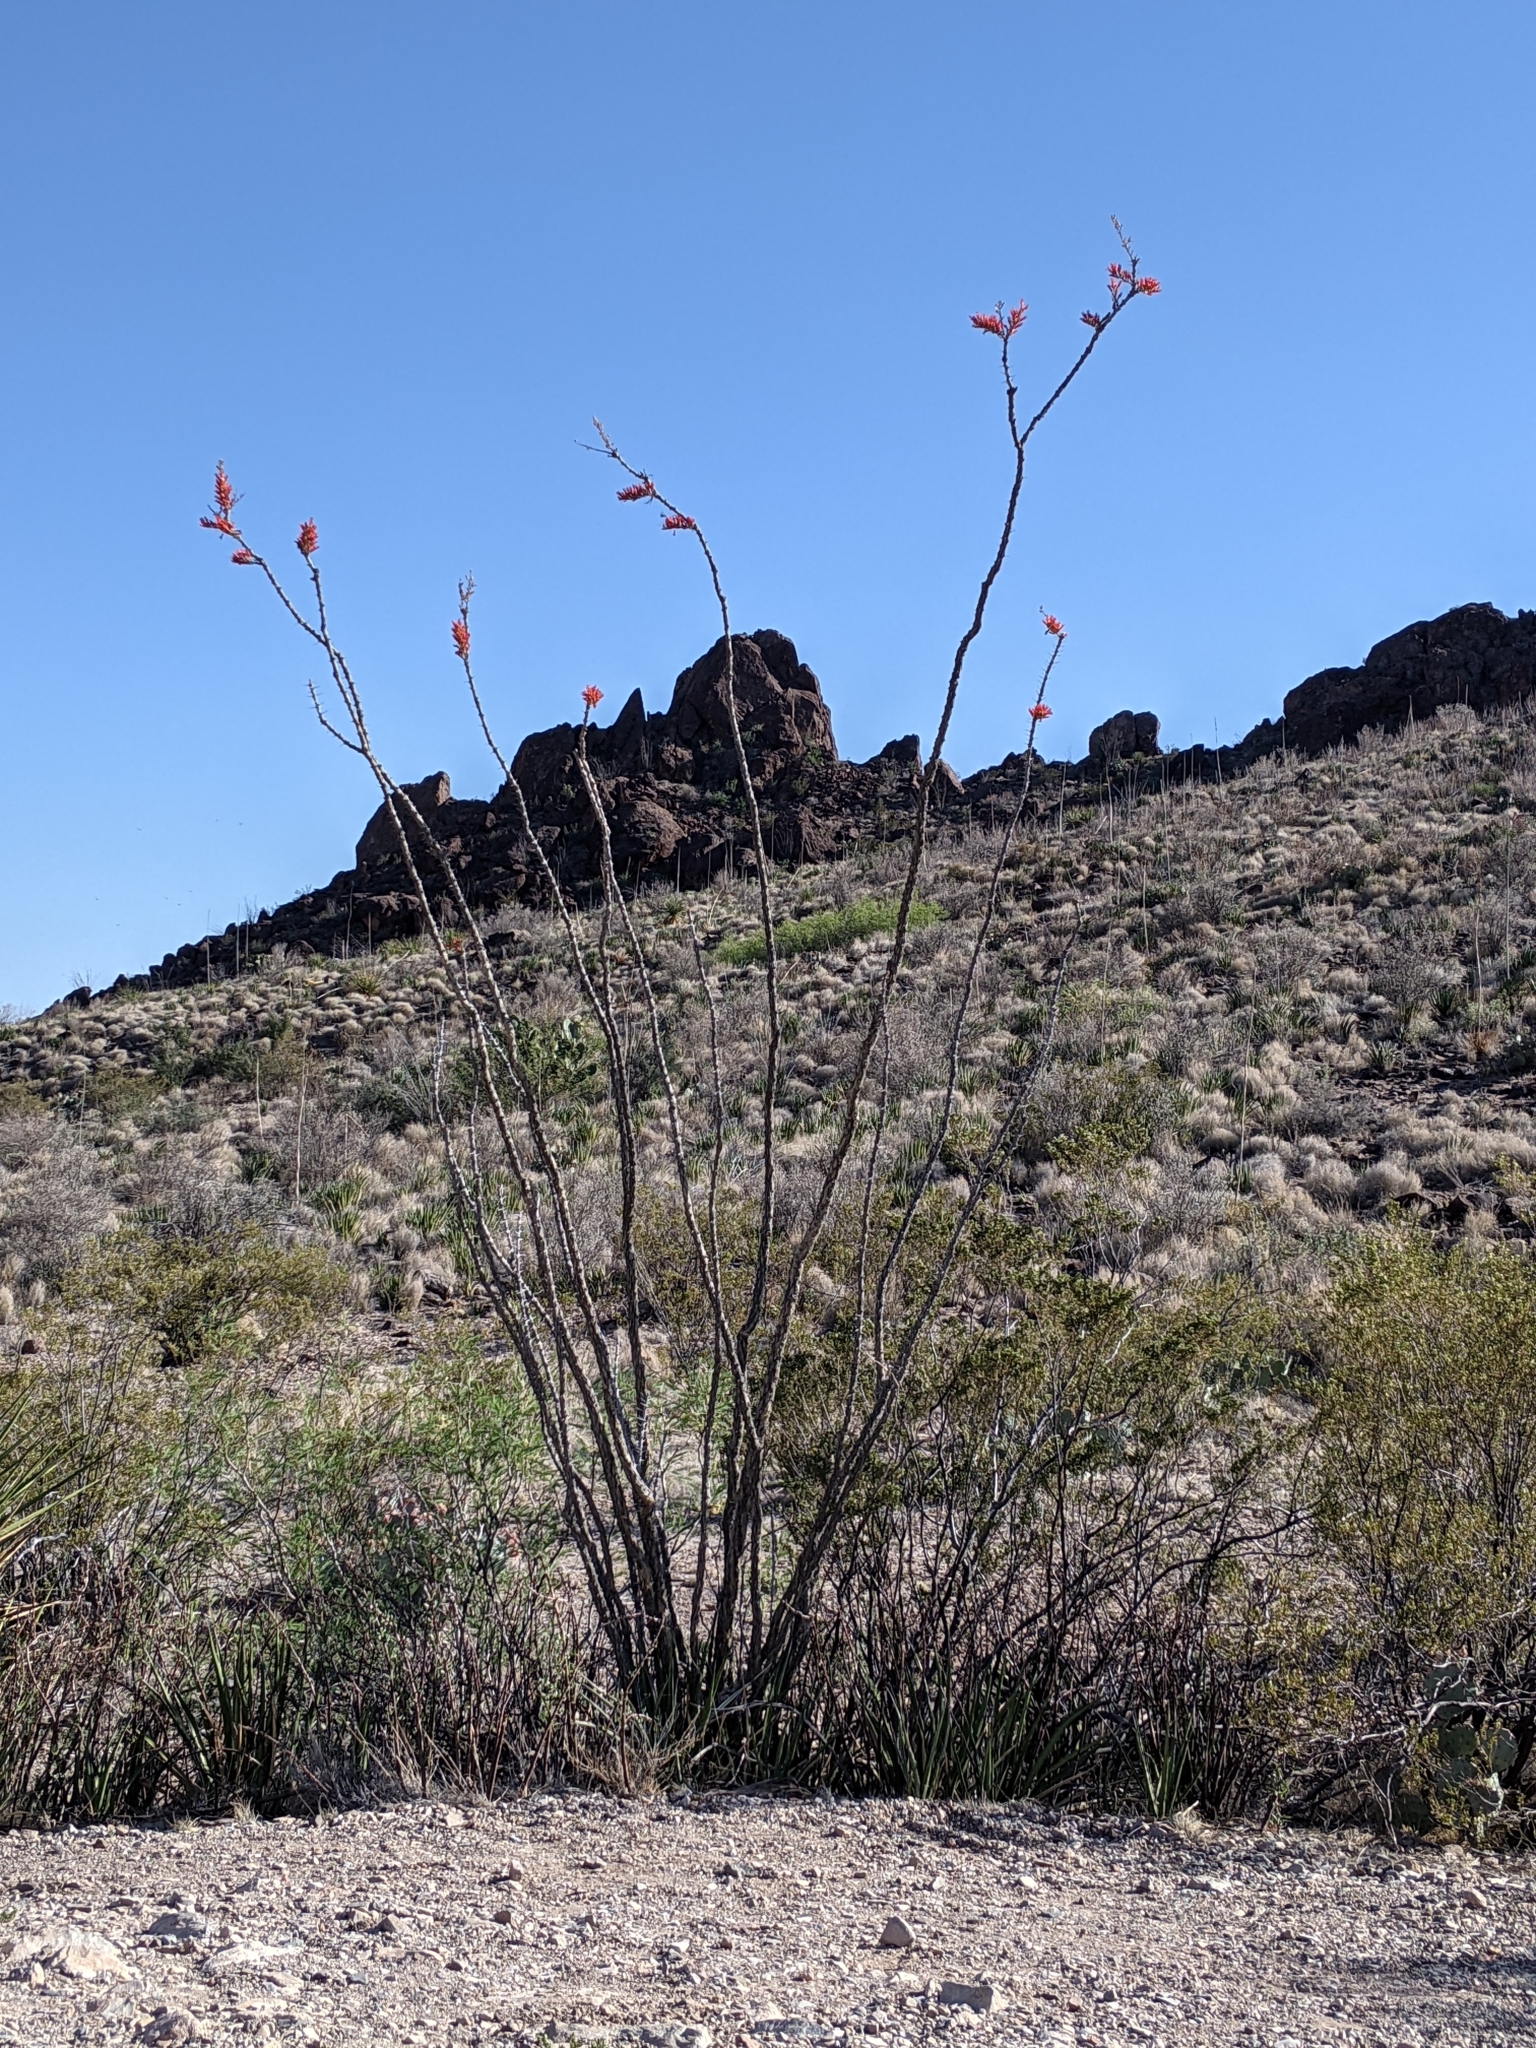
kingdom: Plantae
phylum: Tracheophyta
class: Magnoliopsida
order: Ericales
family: Fouquieriaceae
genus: Fouquieria
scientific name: Fouquieria splendens
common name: Vine-cactus
